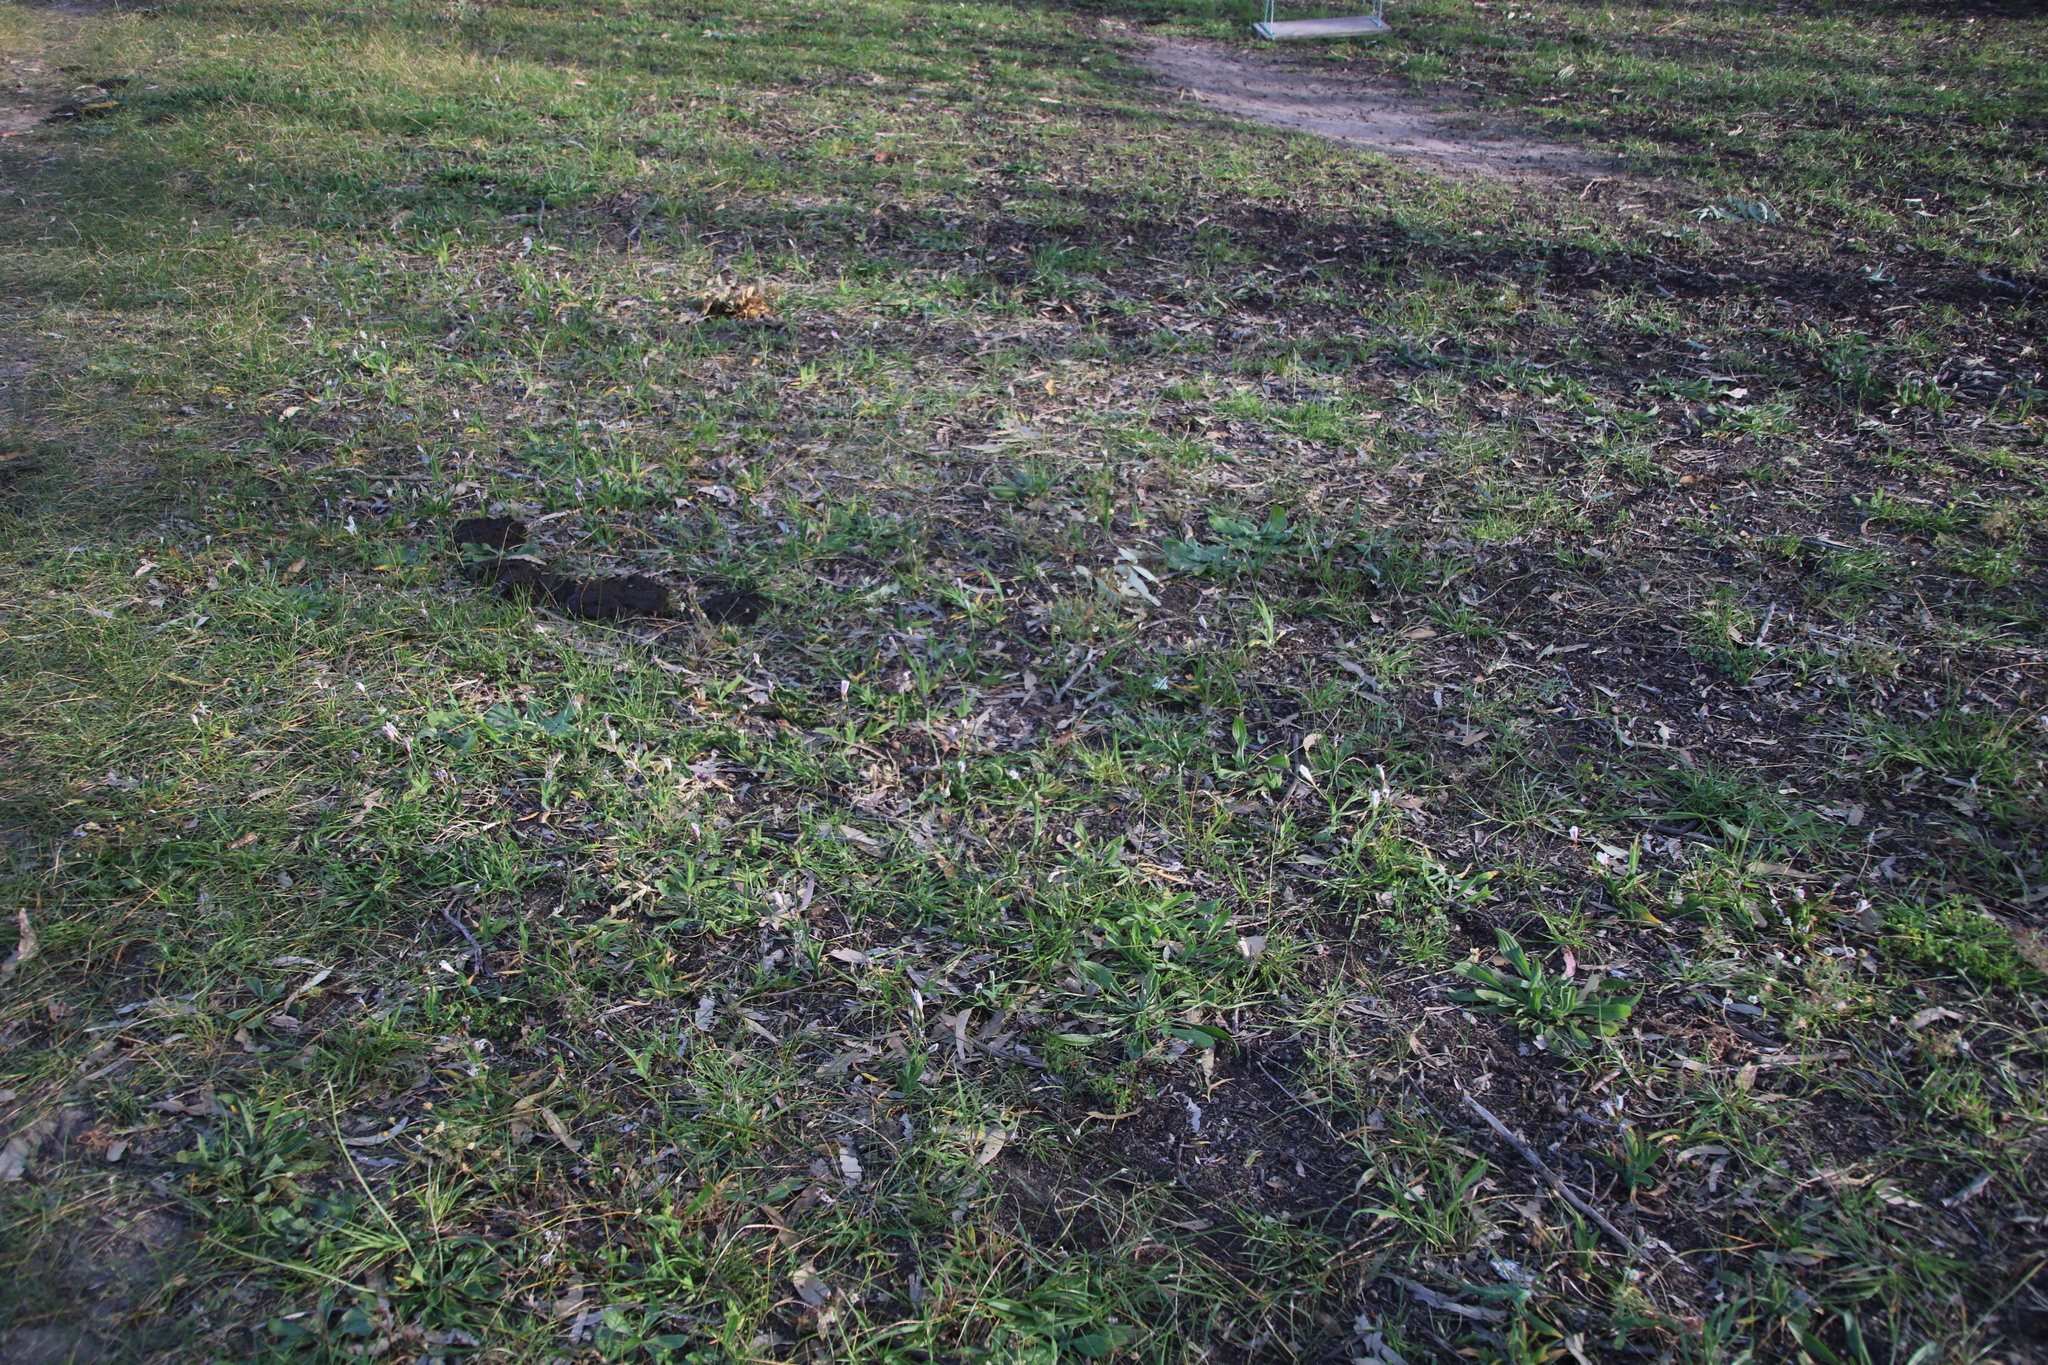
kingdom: Plantae
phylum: Tracheophyta
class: Liliopsida
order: Asparagales
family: Iridaceae
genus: Sparaxis
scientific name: Sparaxis bulbifera
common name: Harlequin-flower
